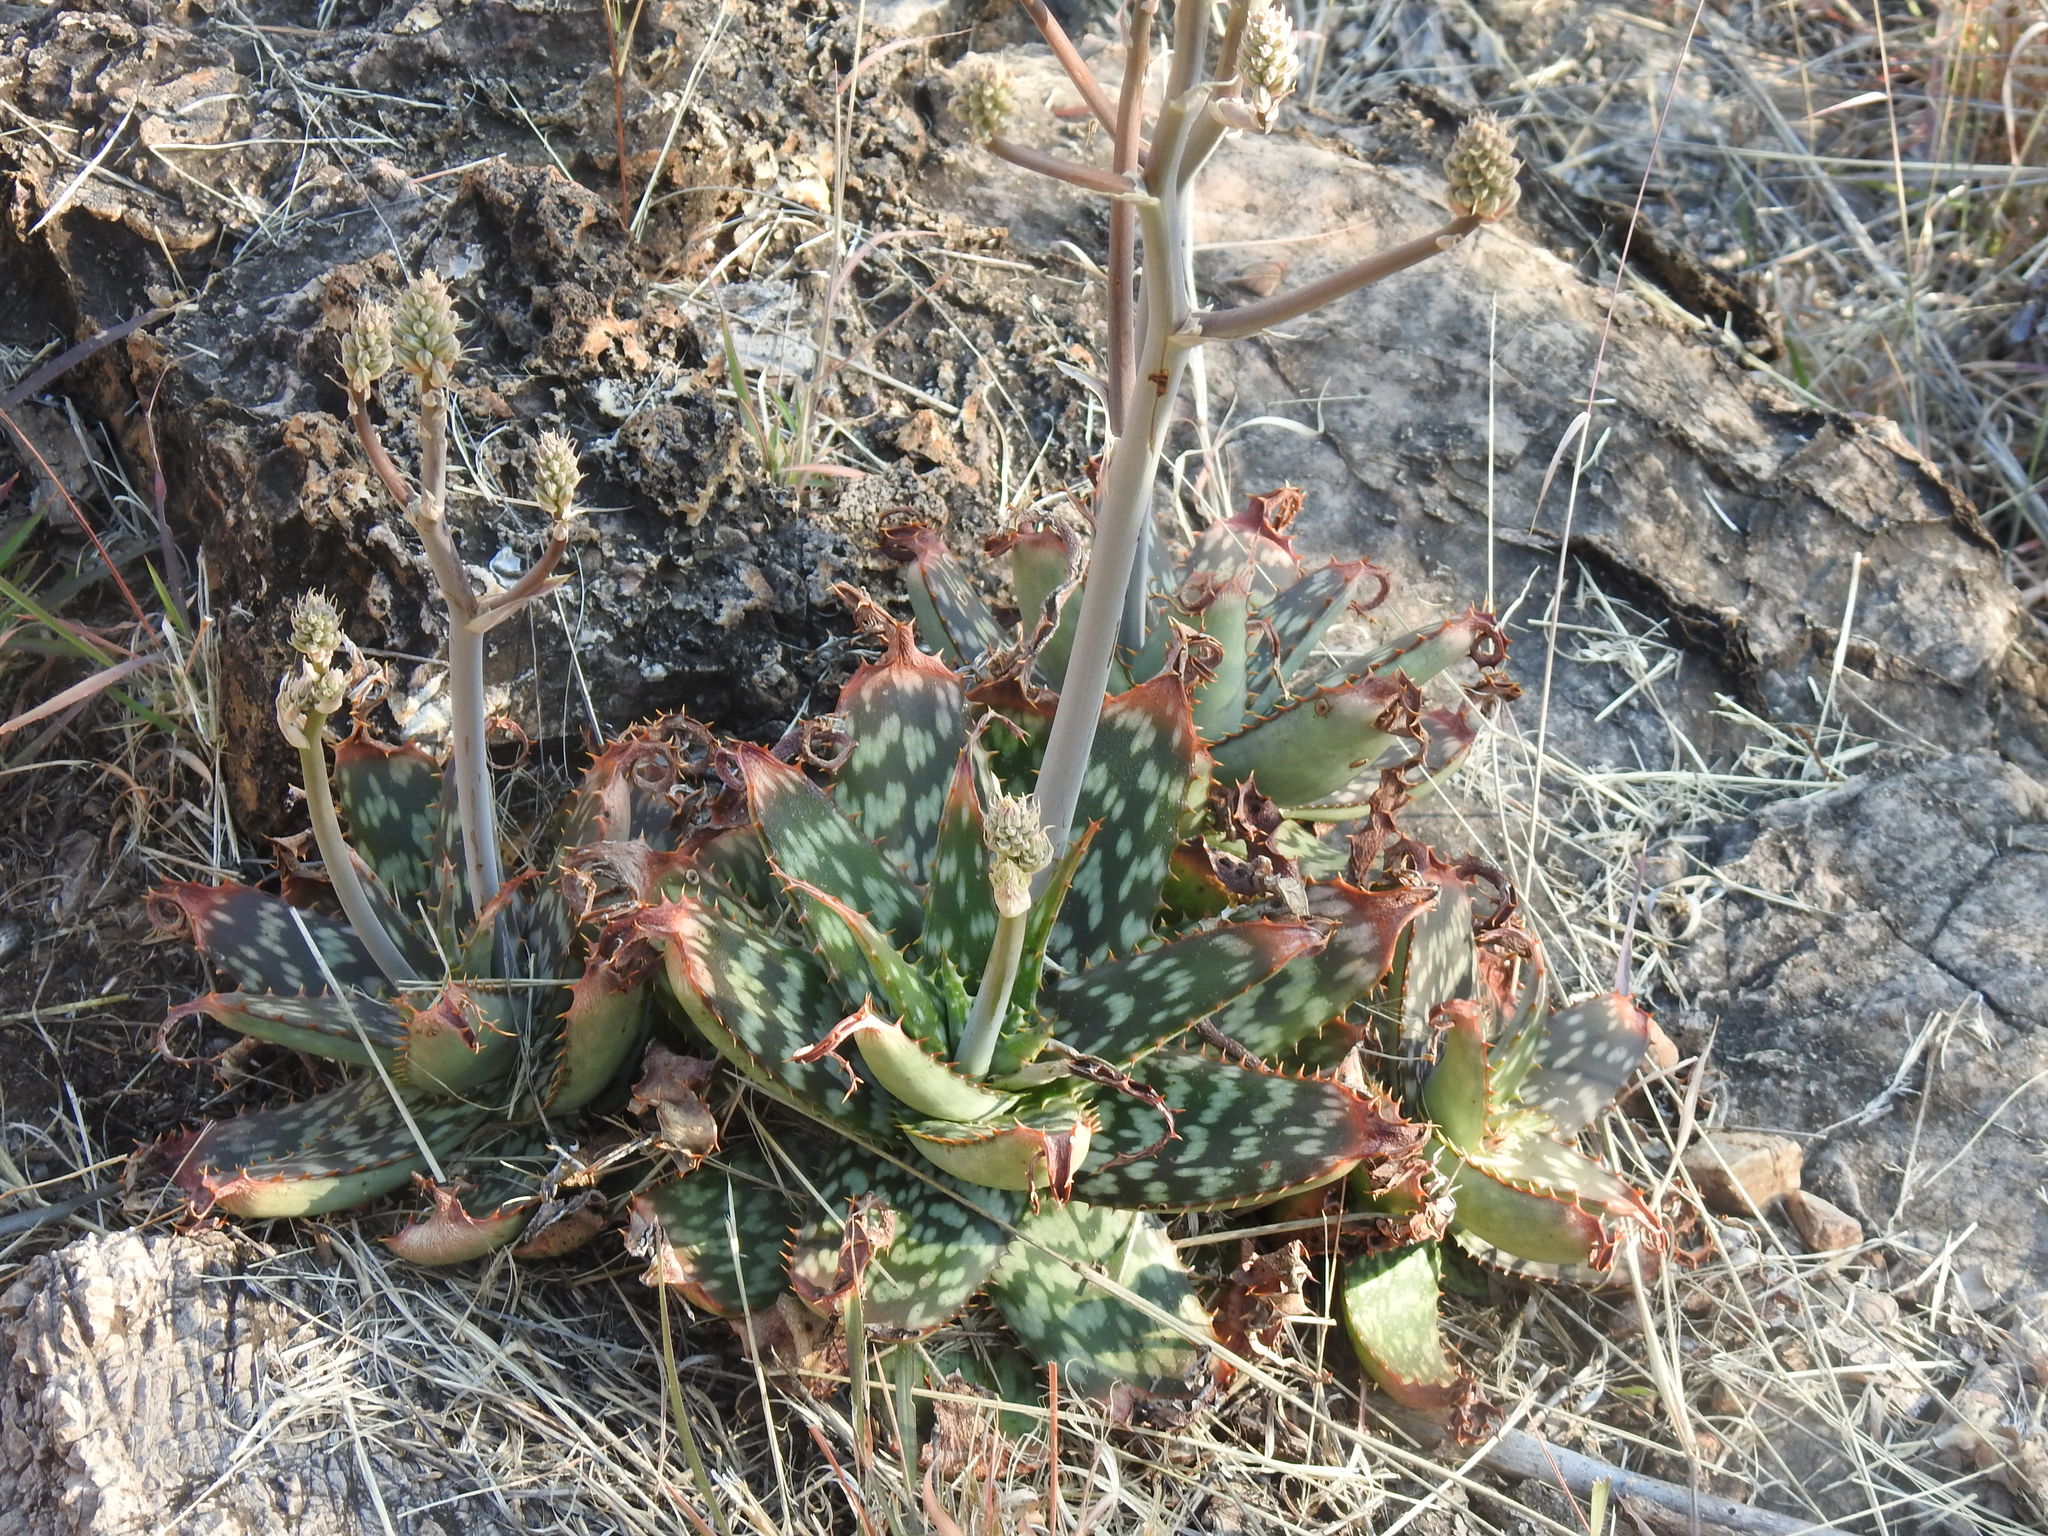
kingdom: Plantae
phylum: Tracheophyta
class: Liliopsida
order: Asparagales
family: Asphodelaceae
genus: Aloe
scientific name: Aloe greatheadii
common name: Greathead's aloe
